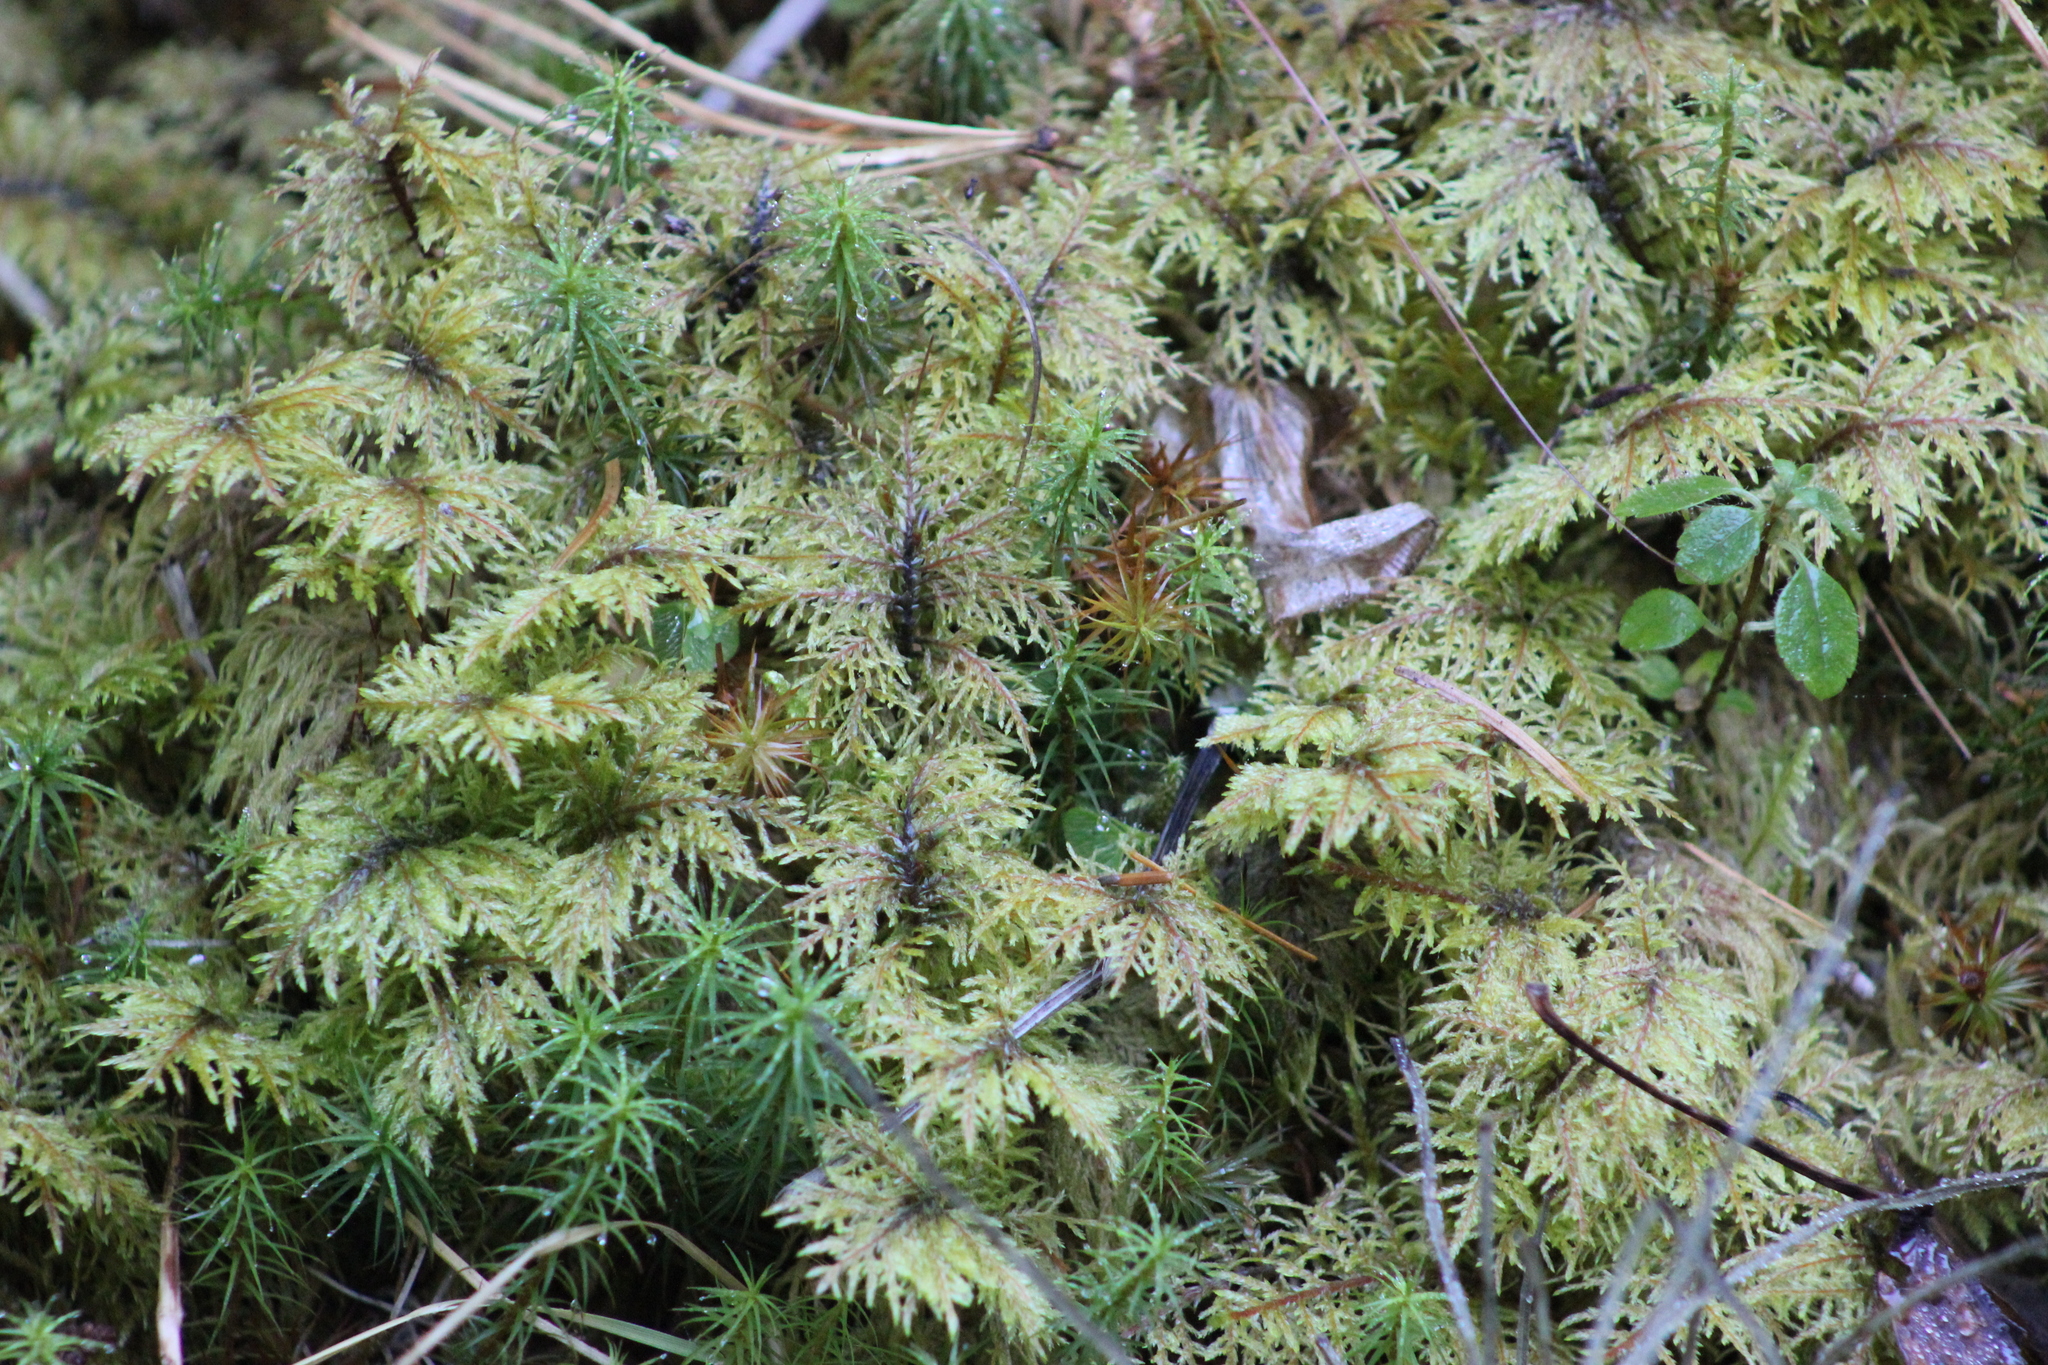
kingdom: Plantae
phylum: Bryophyta
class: Bryopsida
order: Hypnales
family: Hylocomiaceae
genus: Hylocomium
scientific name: Hylocomium splendens
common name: Stairstep moss
